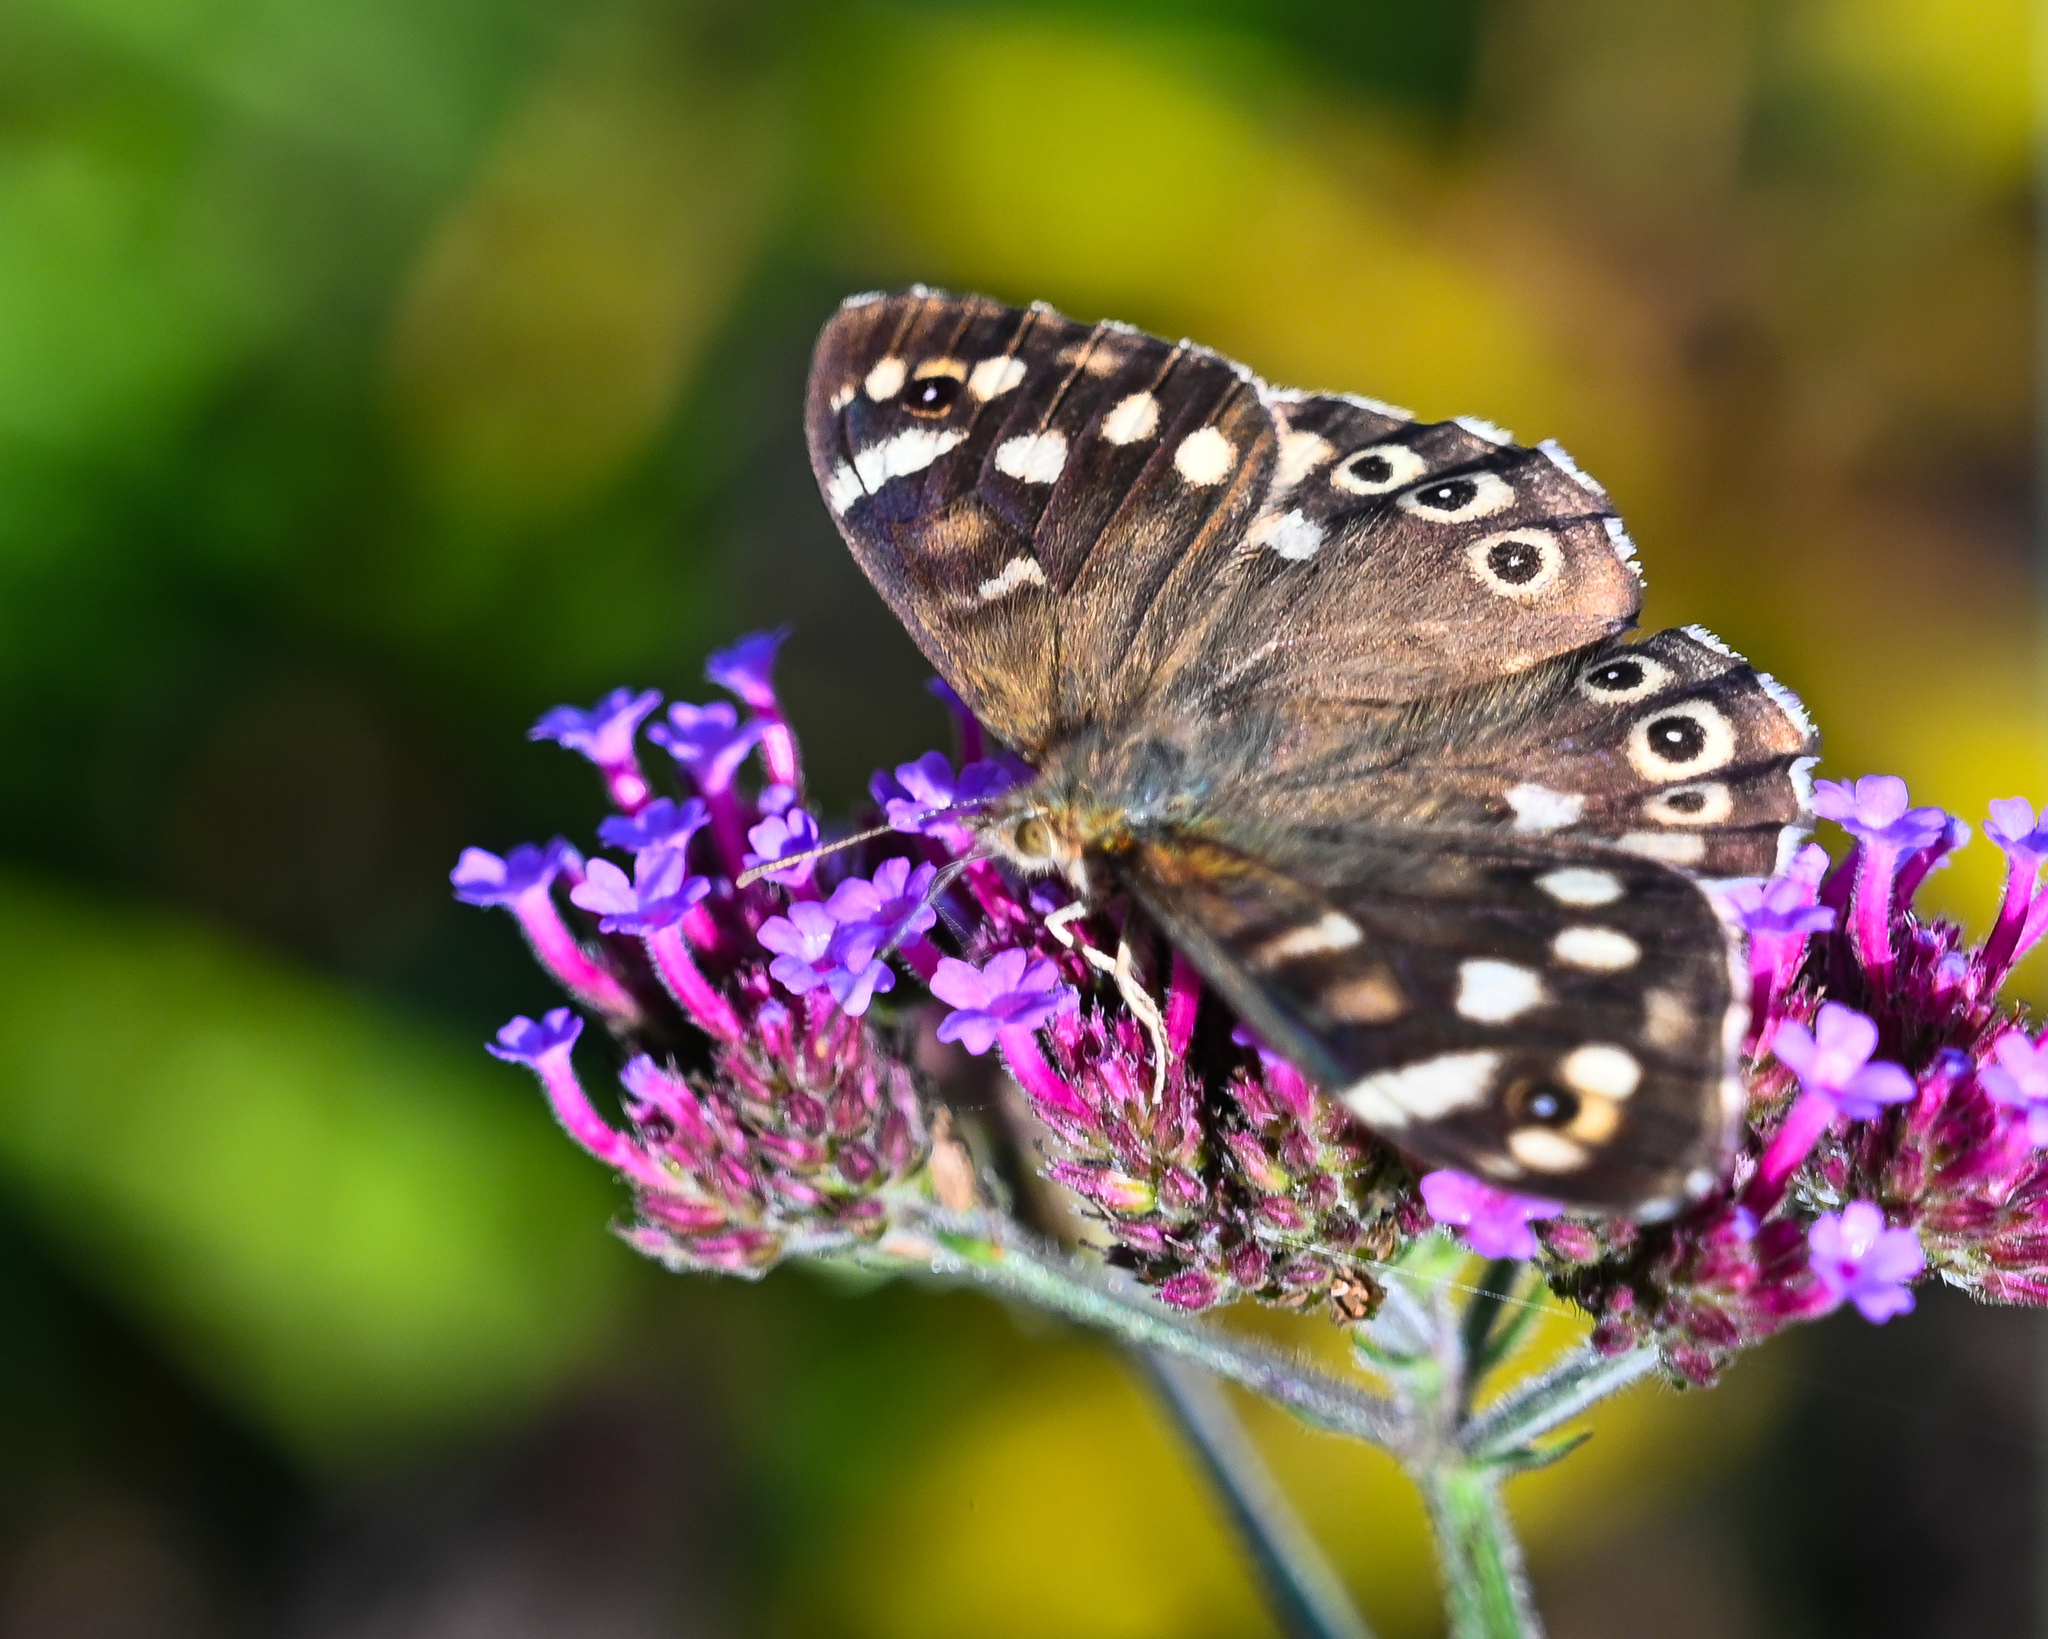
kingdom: Animalia
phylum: Arthropoda
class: Insecta
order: Lepidoptera
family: Nymphalidae
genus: Pararge
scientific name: Pararge aegeria
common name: Speckled wood
